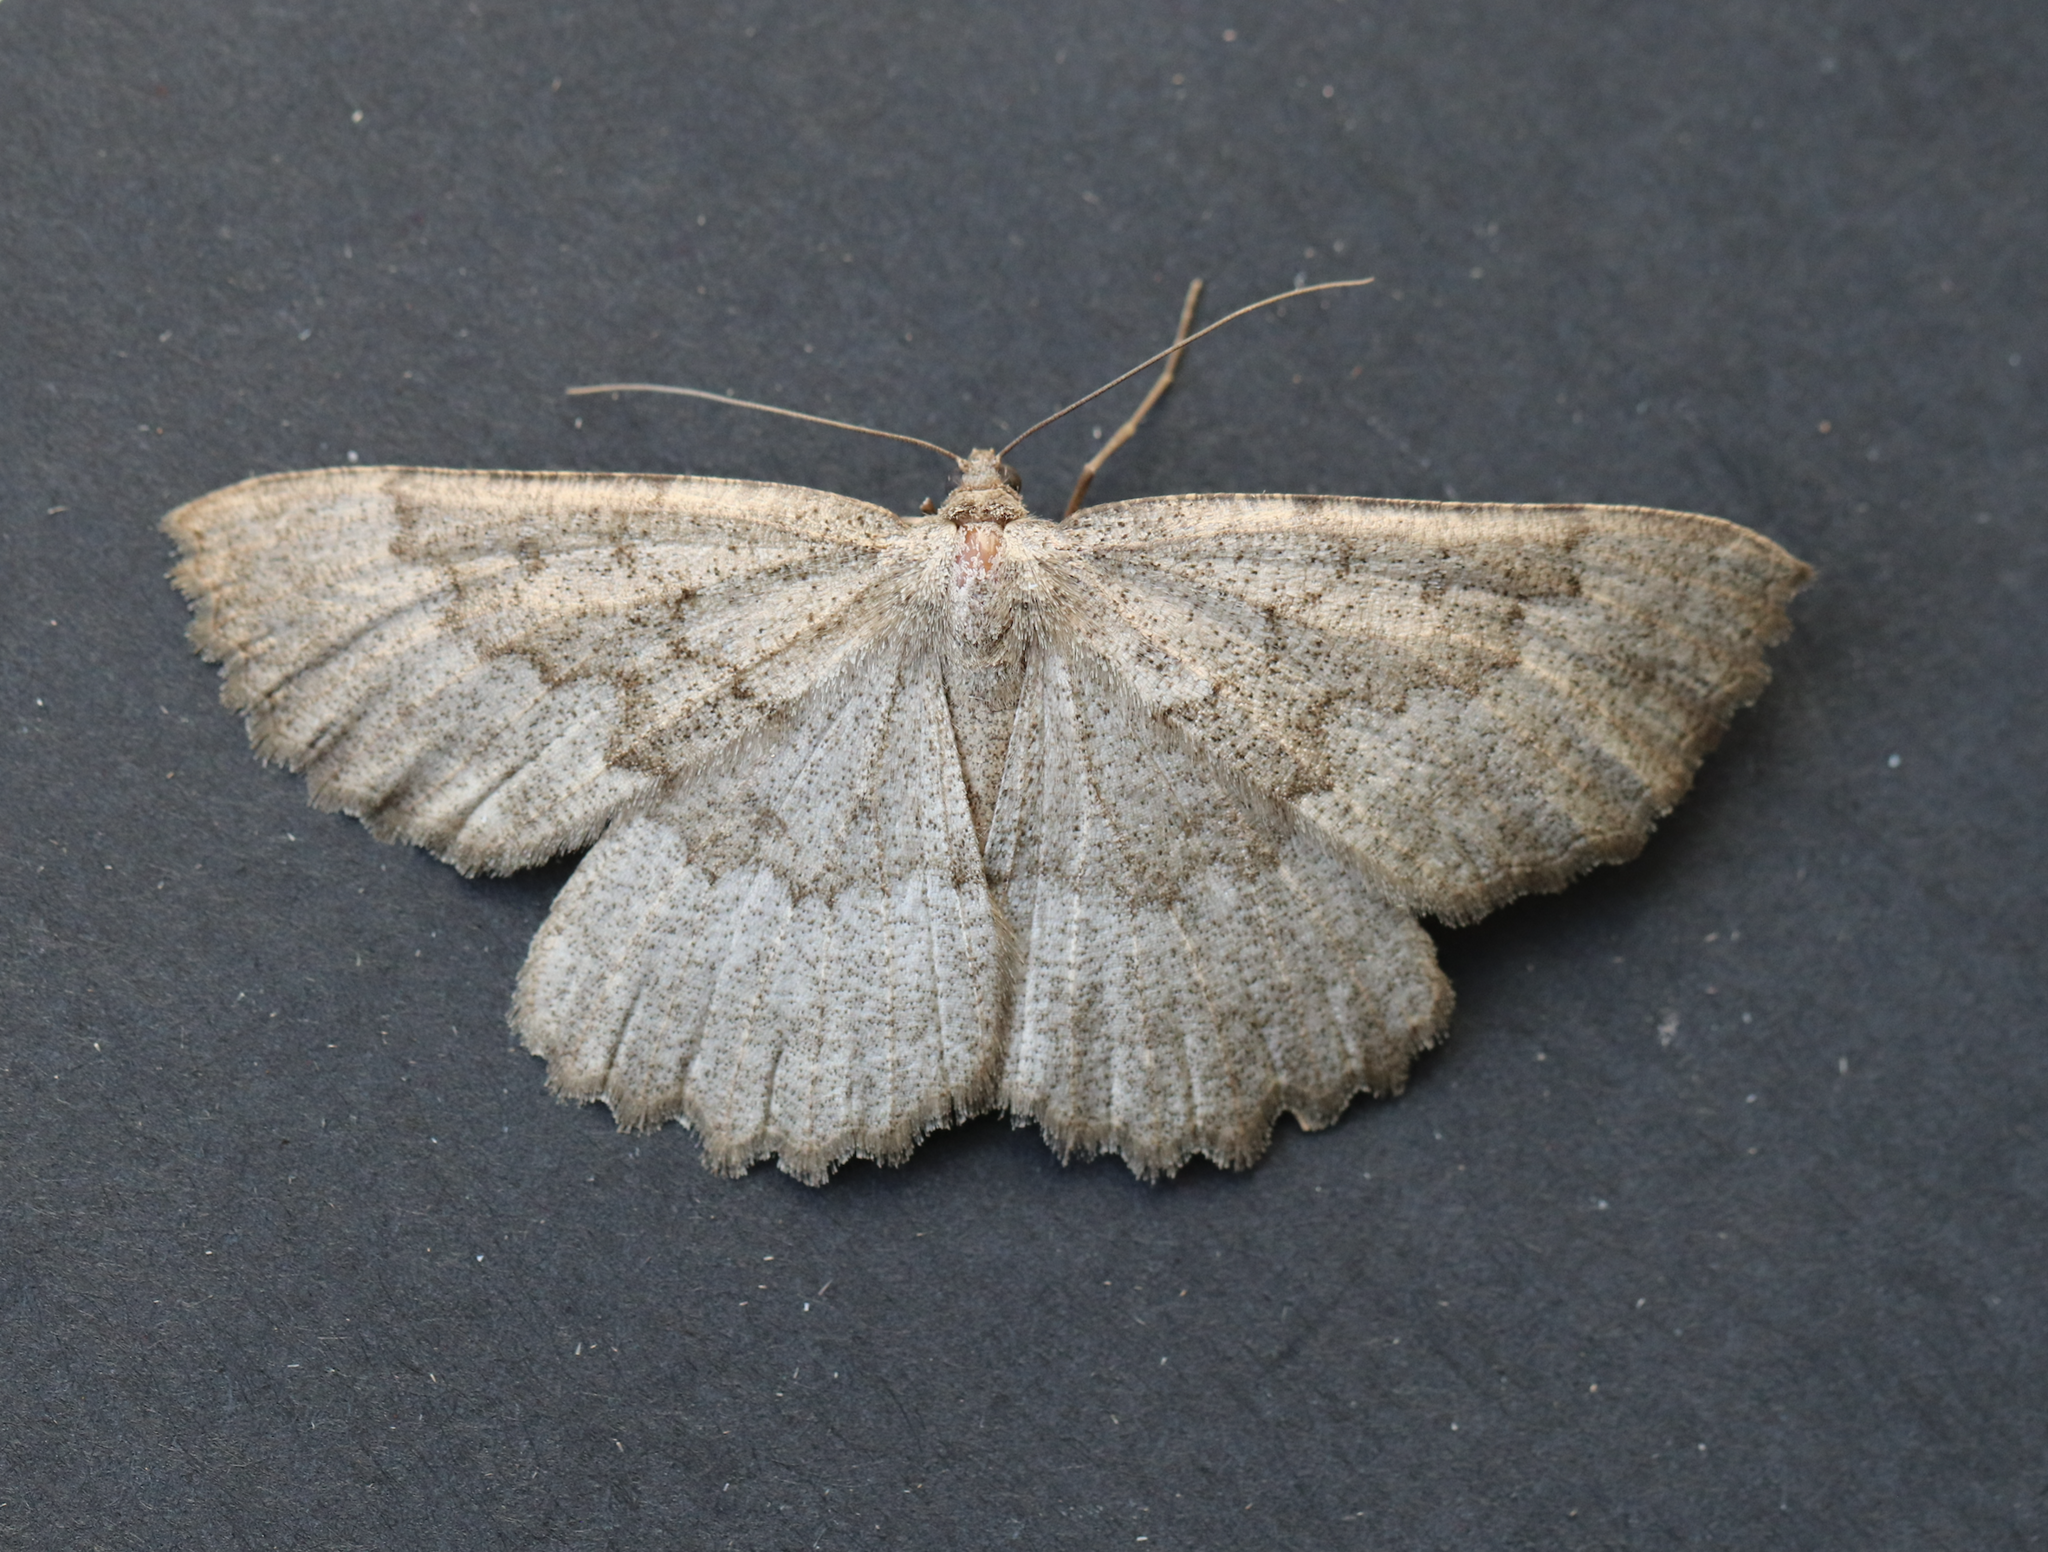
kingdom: Animalia
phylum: Arthropoda
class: Insecta
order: Lepidoptera
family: Geometridae
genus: Gnophos
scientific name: Gnophos furvata
